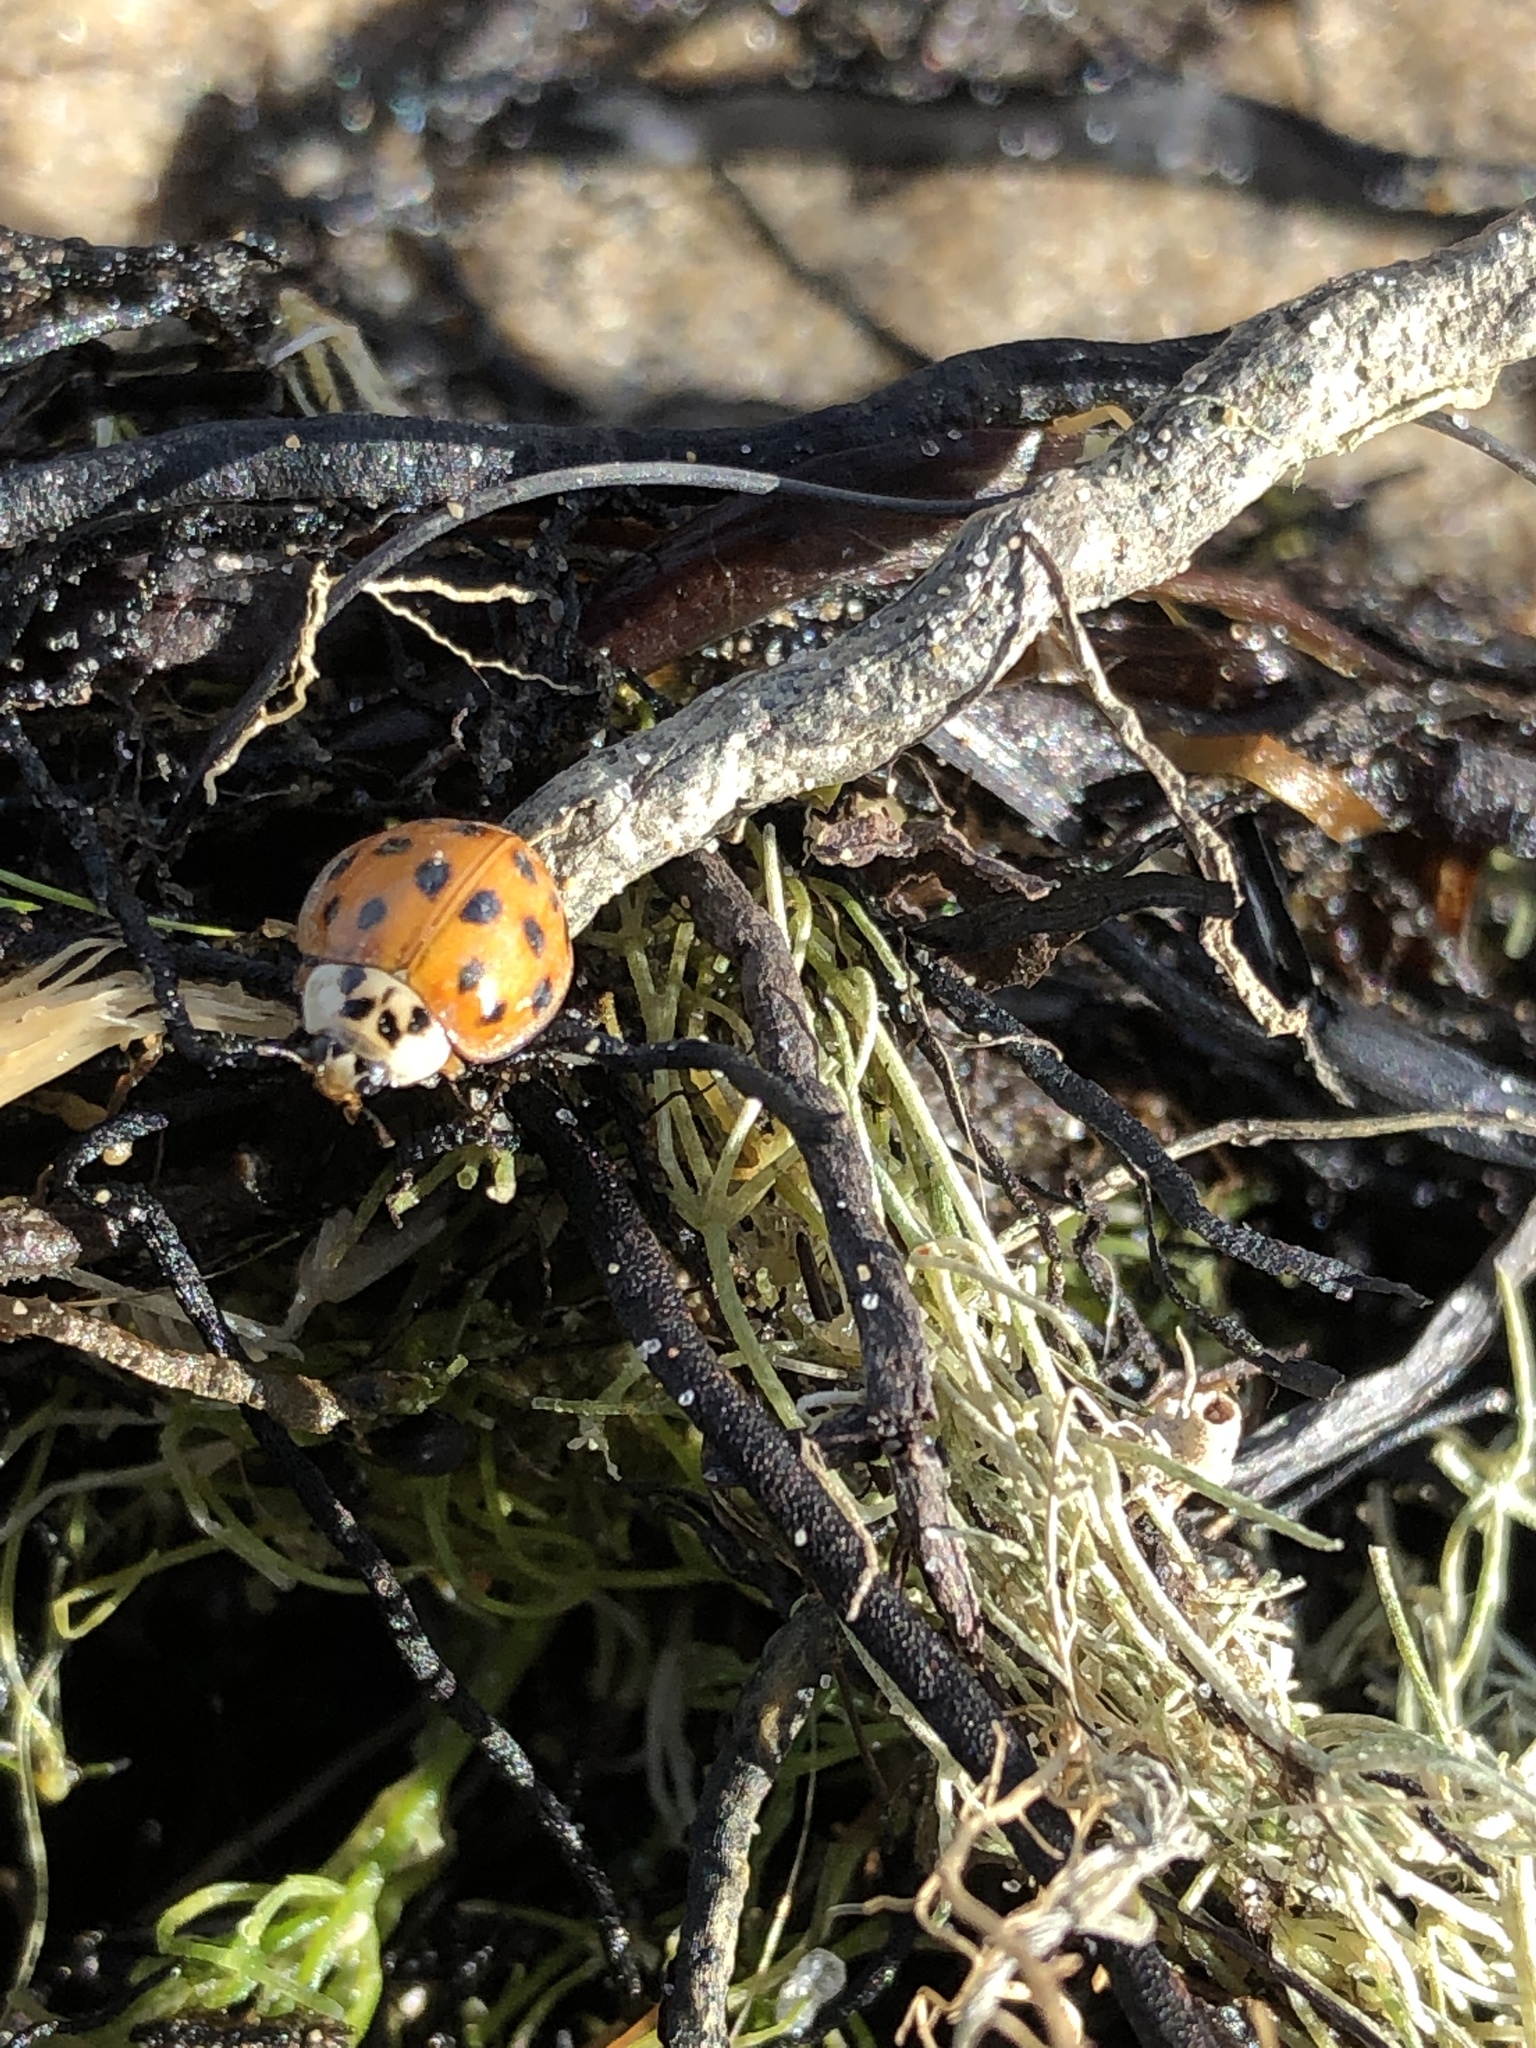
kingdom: Animalia
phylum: Arthropoda
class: Insecta
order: Coleoptera
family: Coccinellidae
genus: Harmonia
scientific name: Harmonia axyridis
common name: Harlequin ladybird
